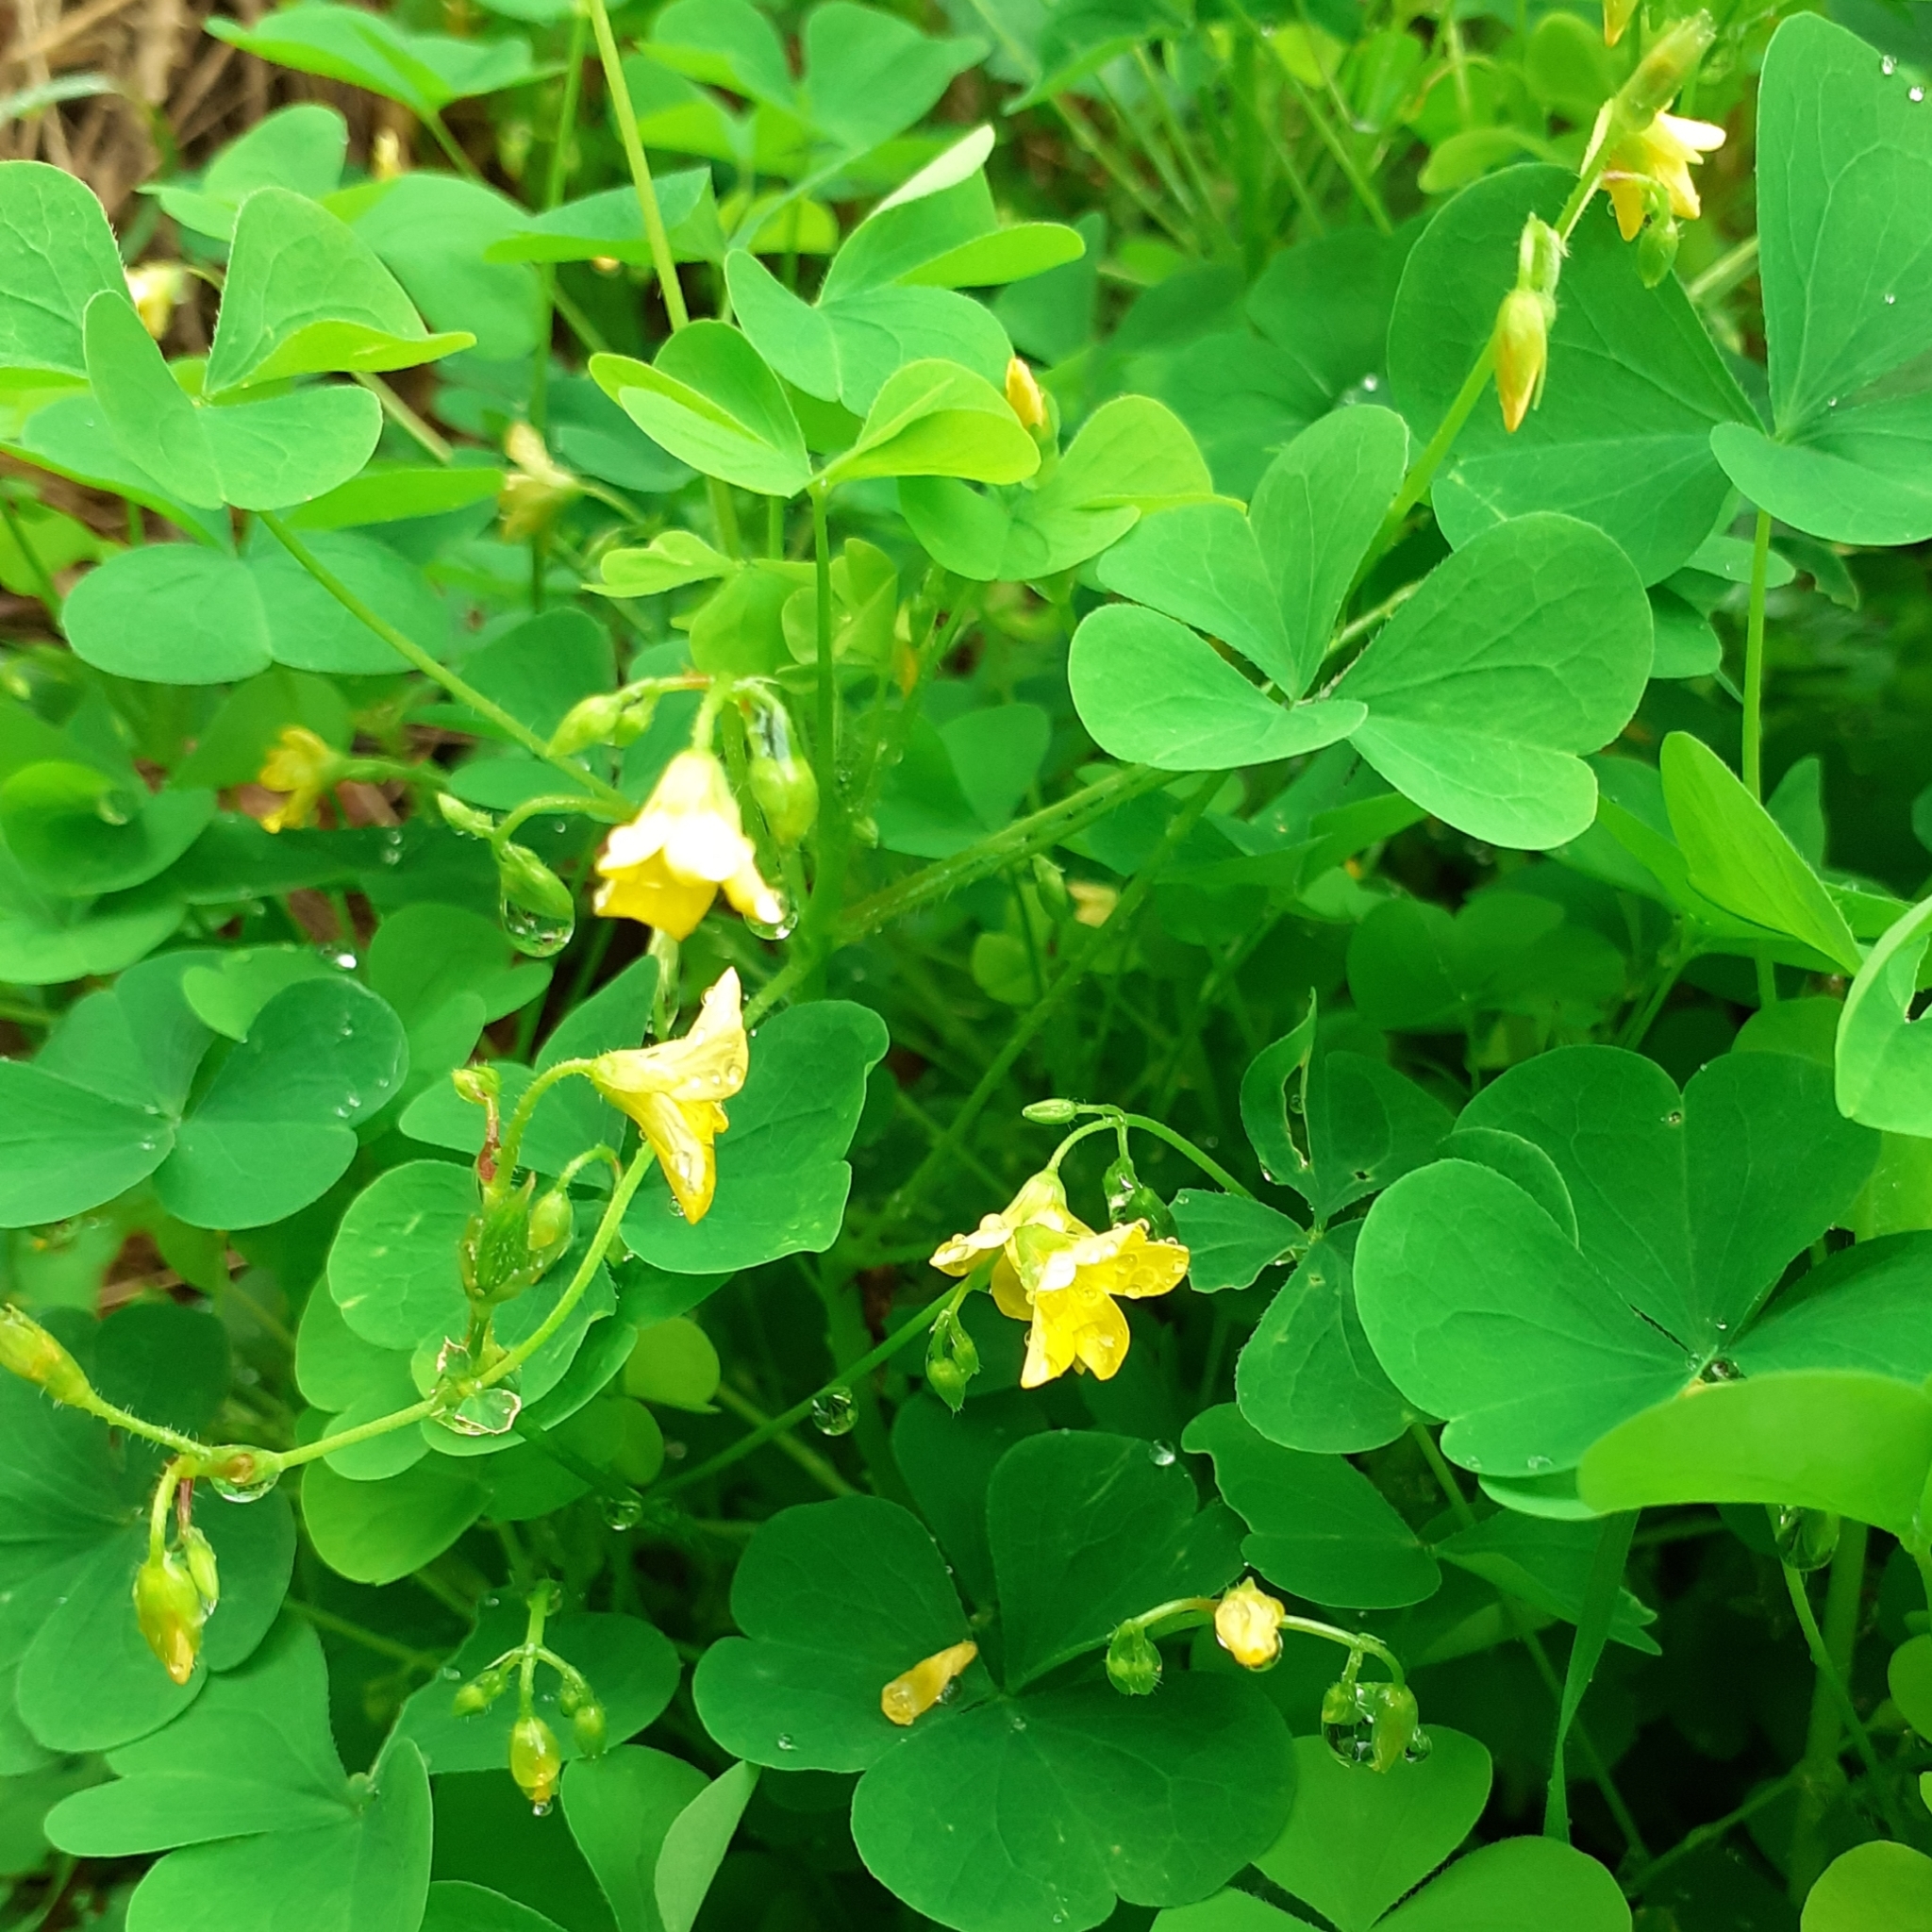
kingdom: Plantae
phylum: Tracheophyta
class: Magnoliopsida
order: Oxalidales
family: Oxalidaceae
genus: Oxalis
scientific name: Oxalis stricta
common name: Upright yellow-sorrel
